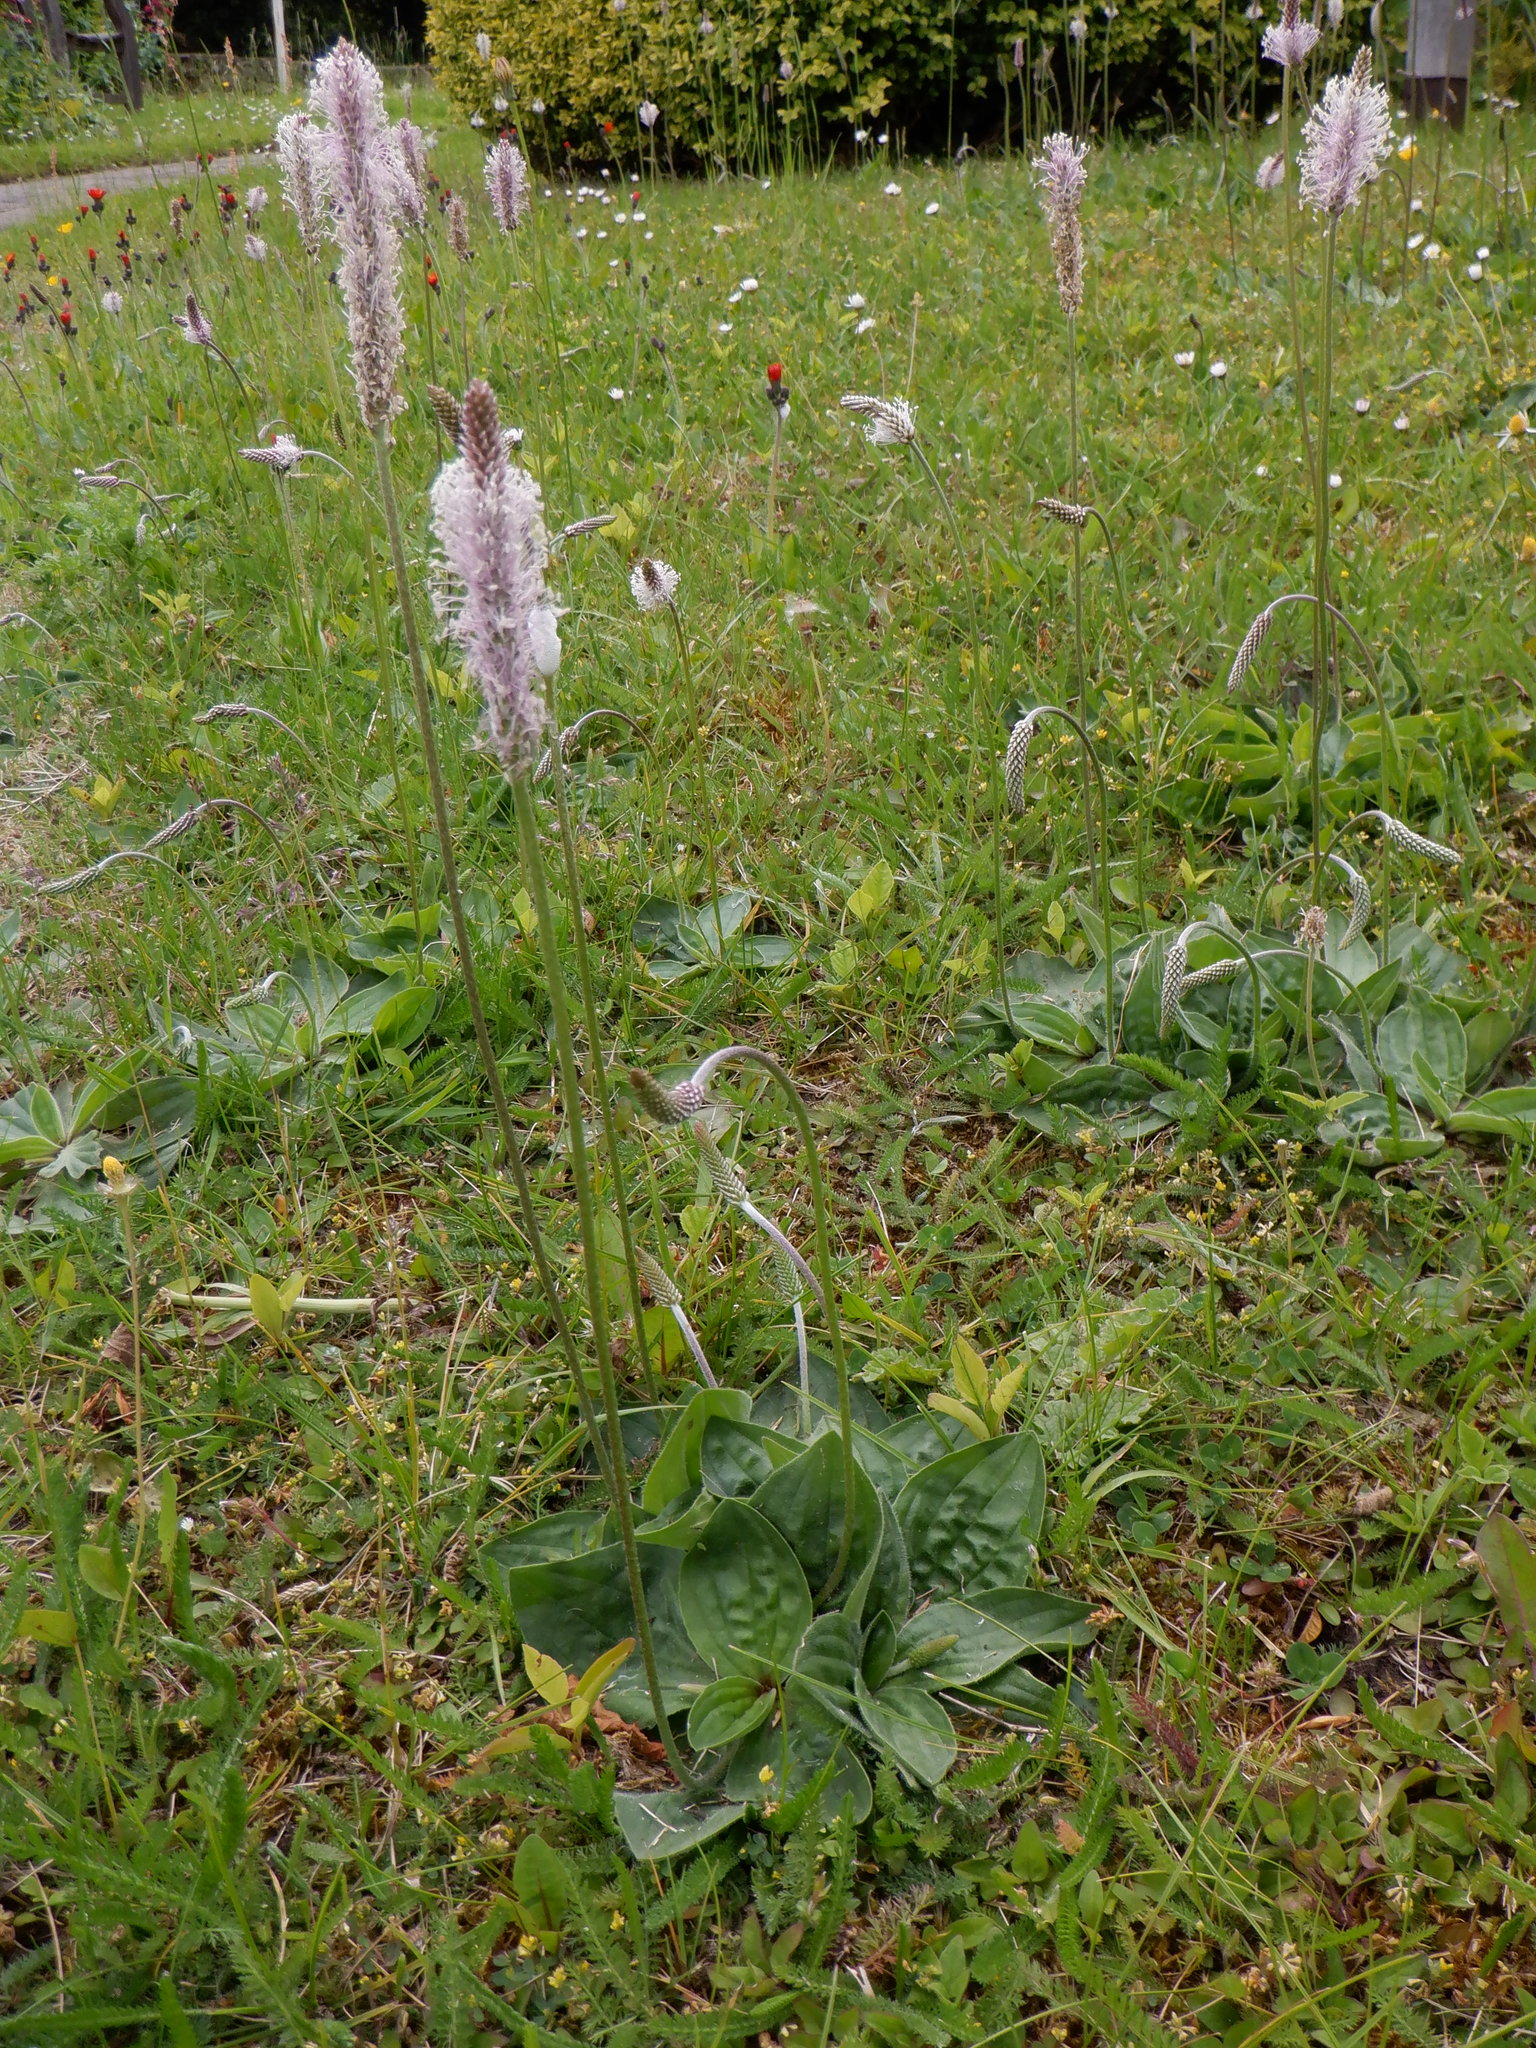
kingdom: Plantae
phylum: Tracheophyta
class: Magnoliopsida
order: Lamiales
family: Plantaginaceae
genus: Plantago
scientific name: Plantago media
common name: Hoary plantain
